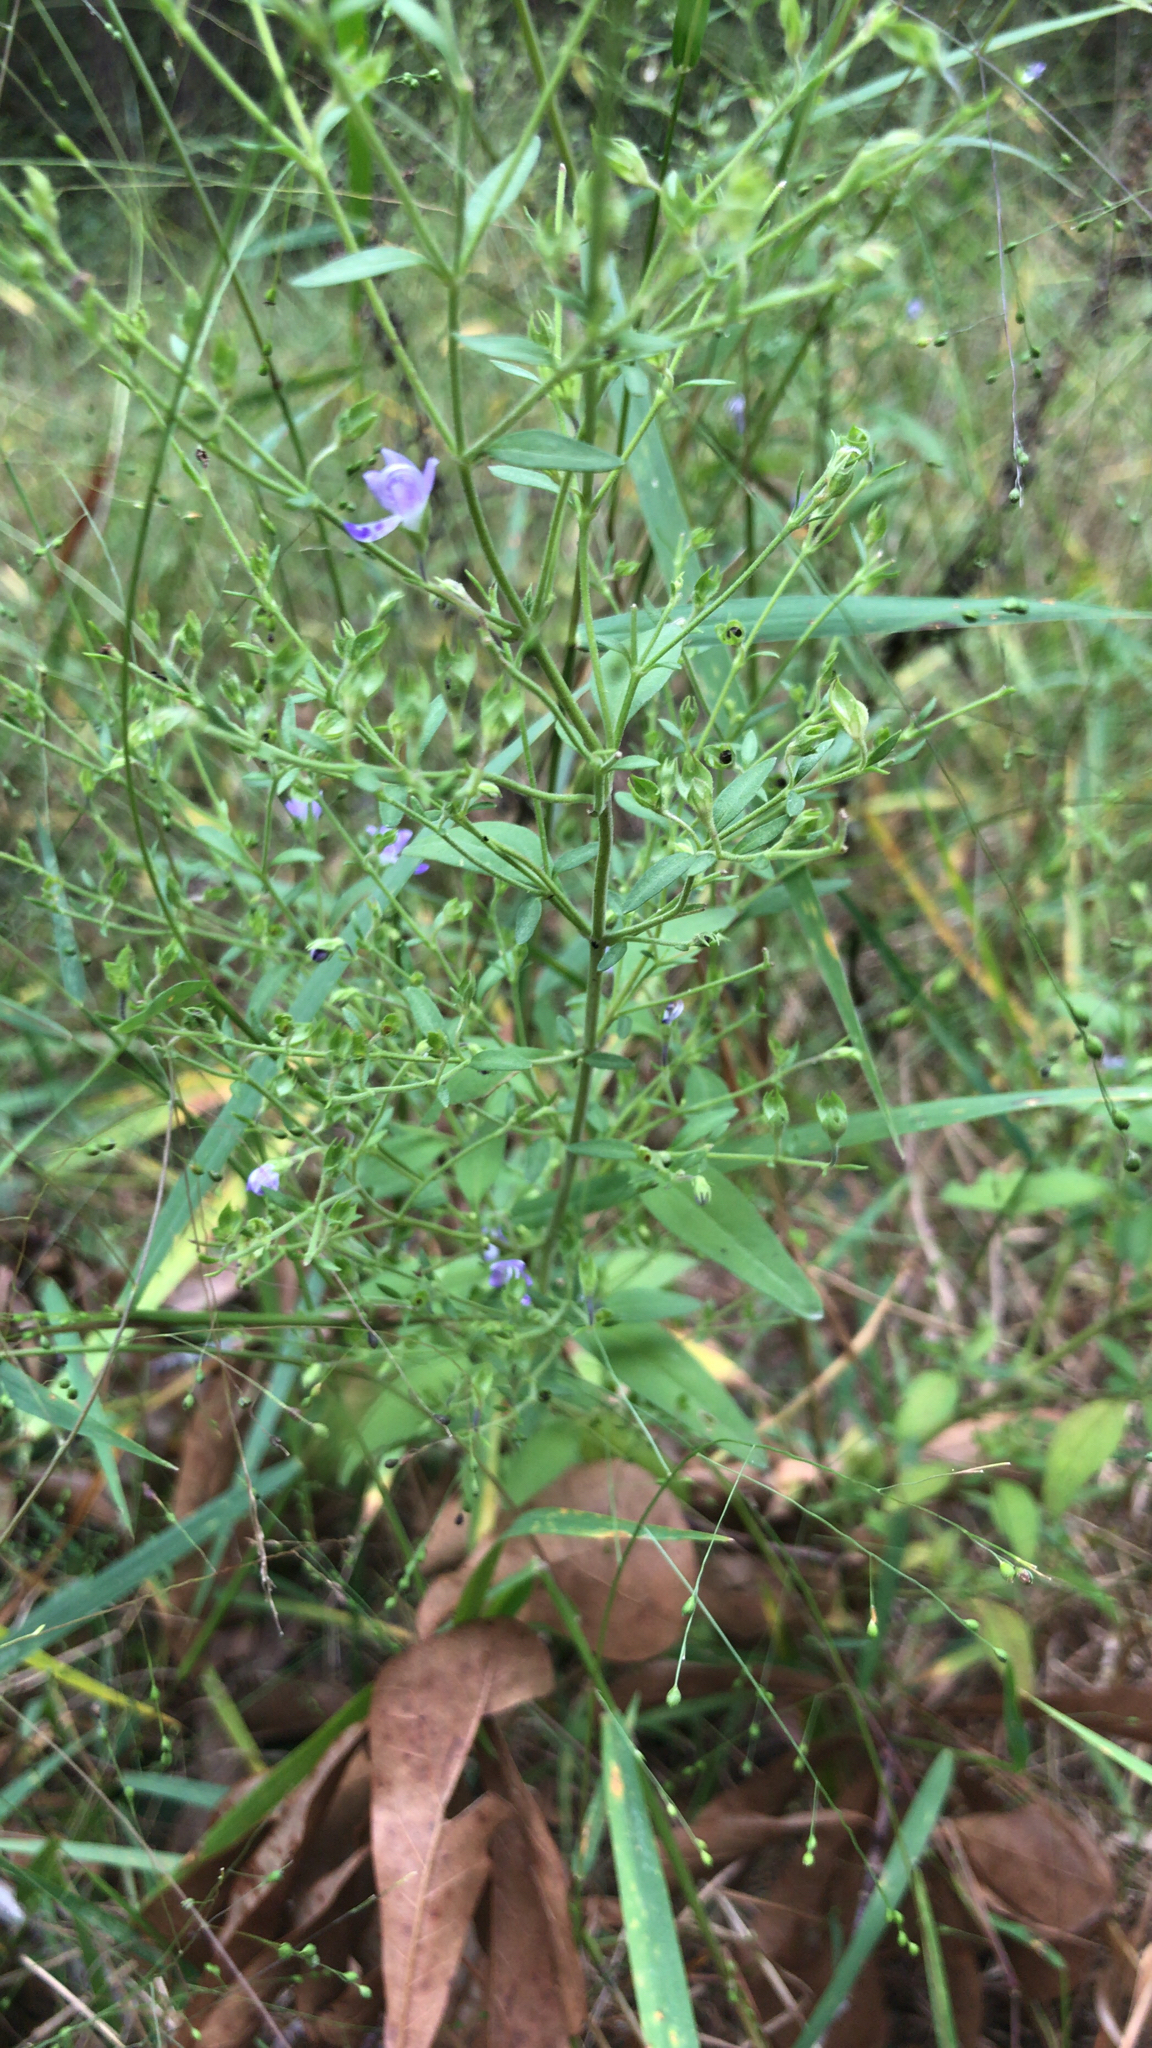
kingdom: Plantae
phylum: Tracheophyta
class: Magnoliopsida
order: Lamiales
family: Lamiaceae
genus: Trichostema
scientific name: Trichostema dichotomum
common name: Bastard pennyroyal
